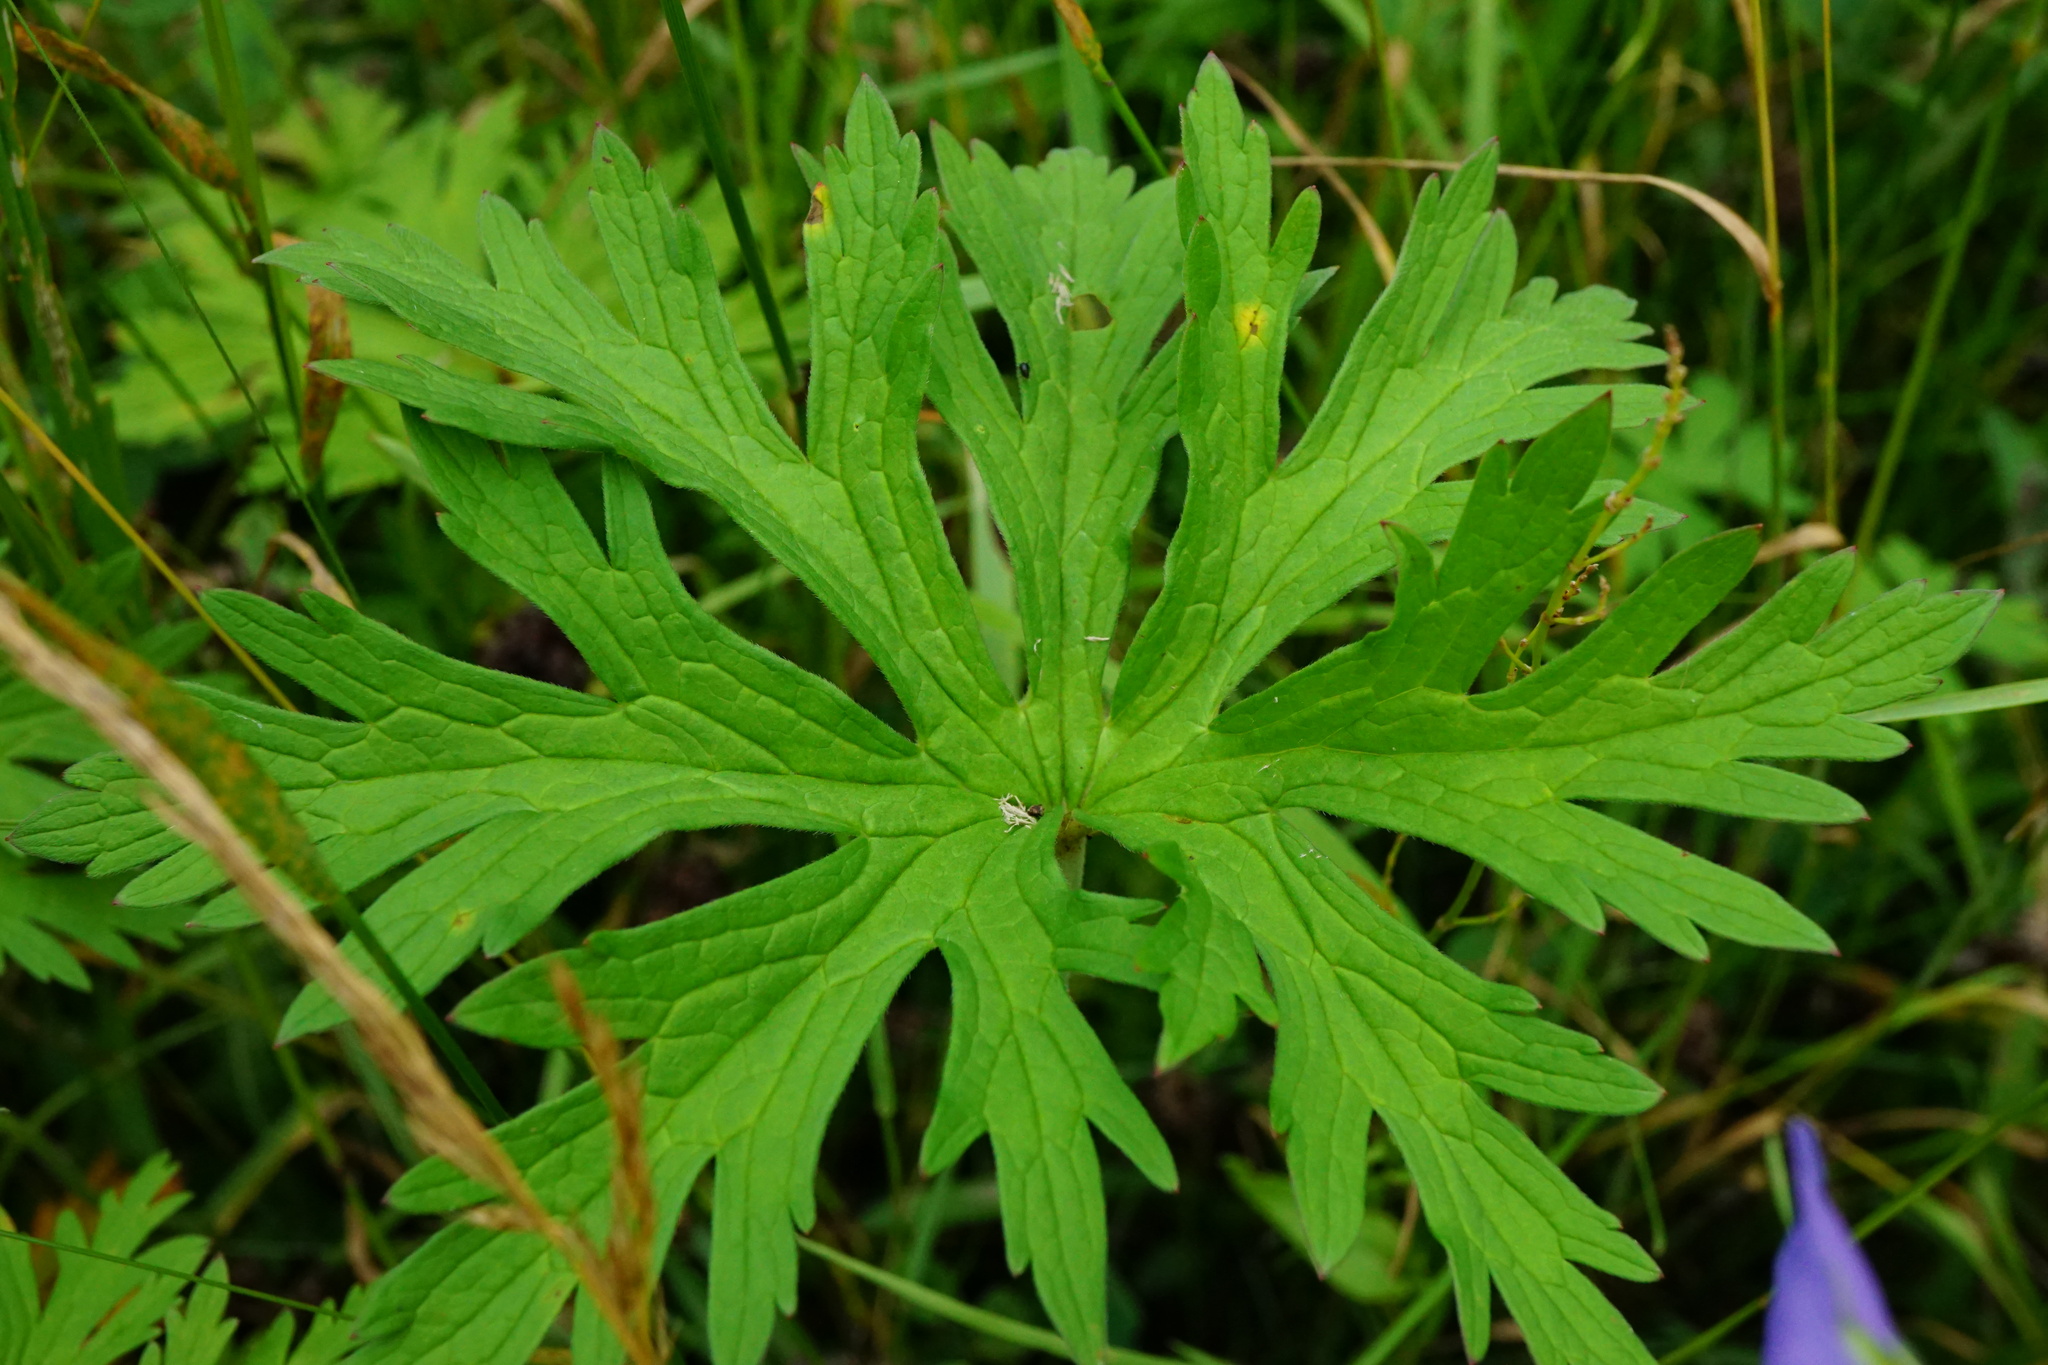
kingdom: Plantae
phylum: Tracheophyta
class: Magnoliopsida
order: Geraniales
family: Geraniaceae
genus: Geranium
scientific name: Geranium pratense
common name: Meadow crane's-bill
